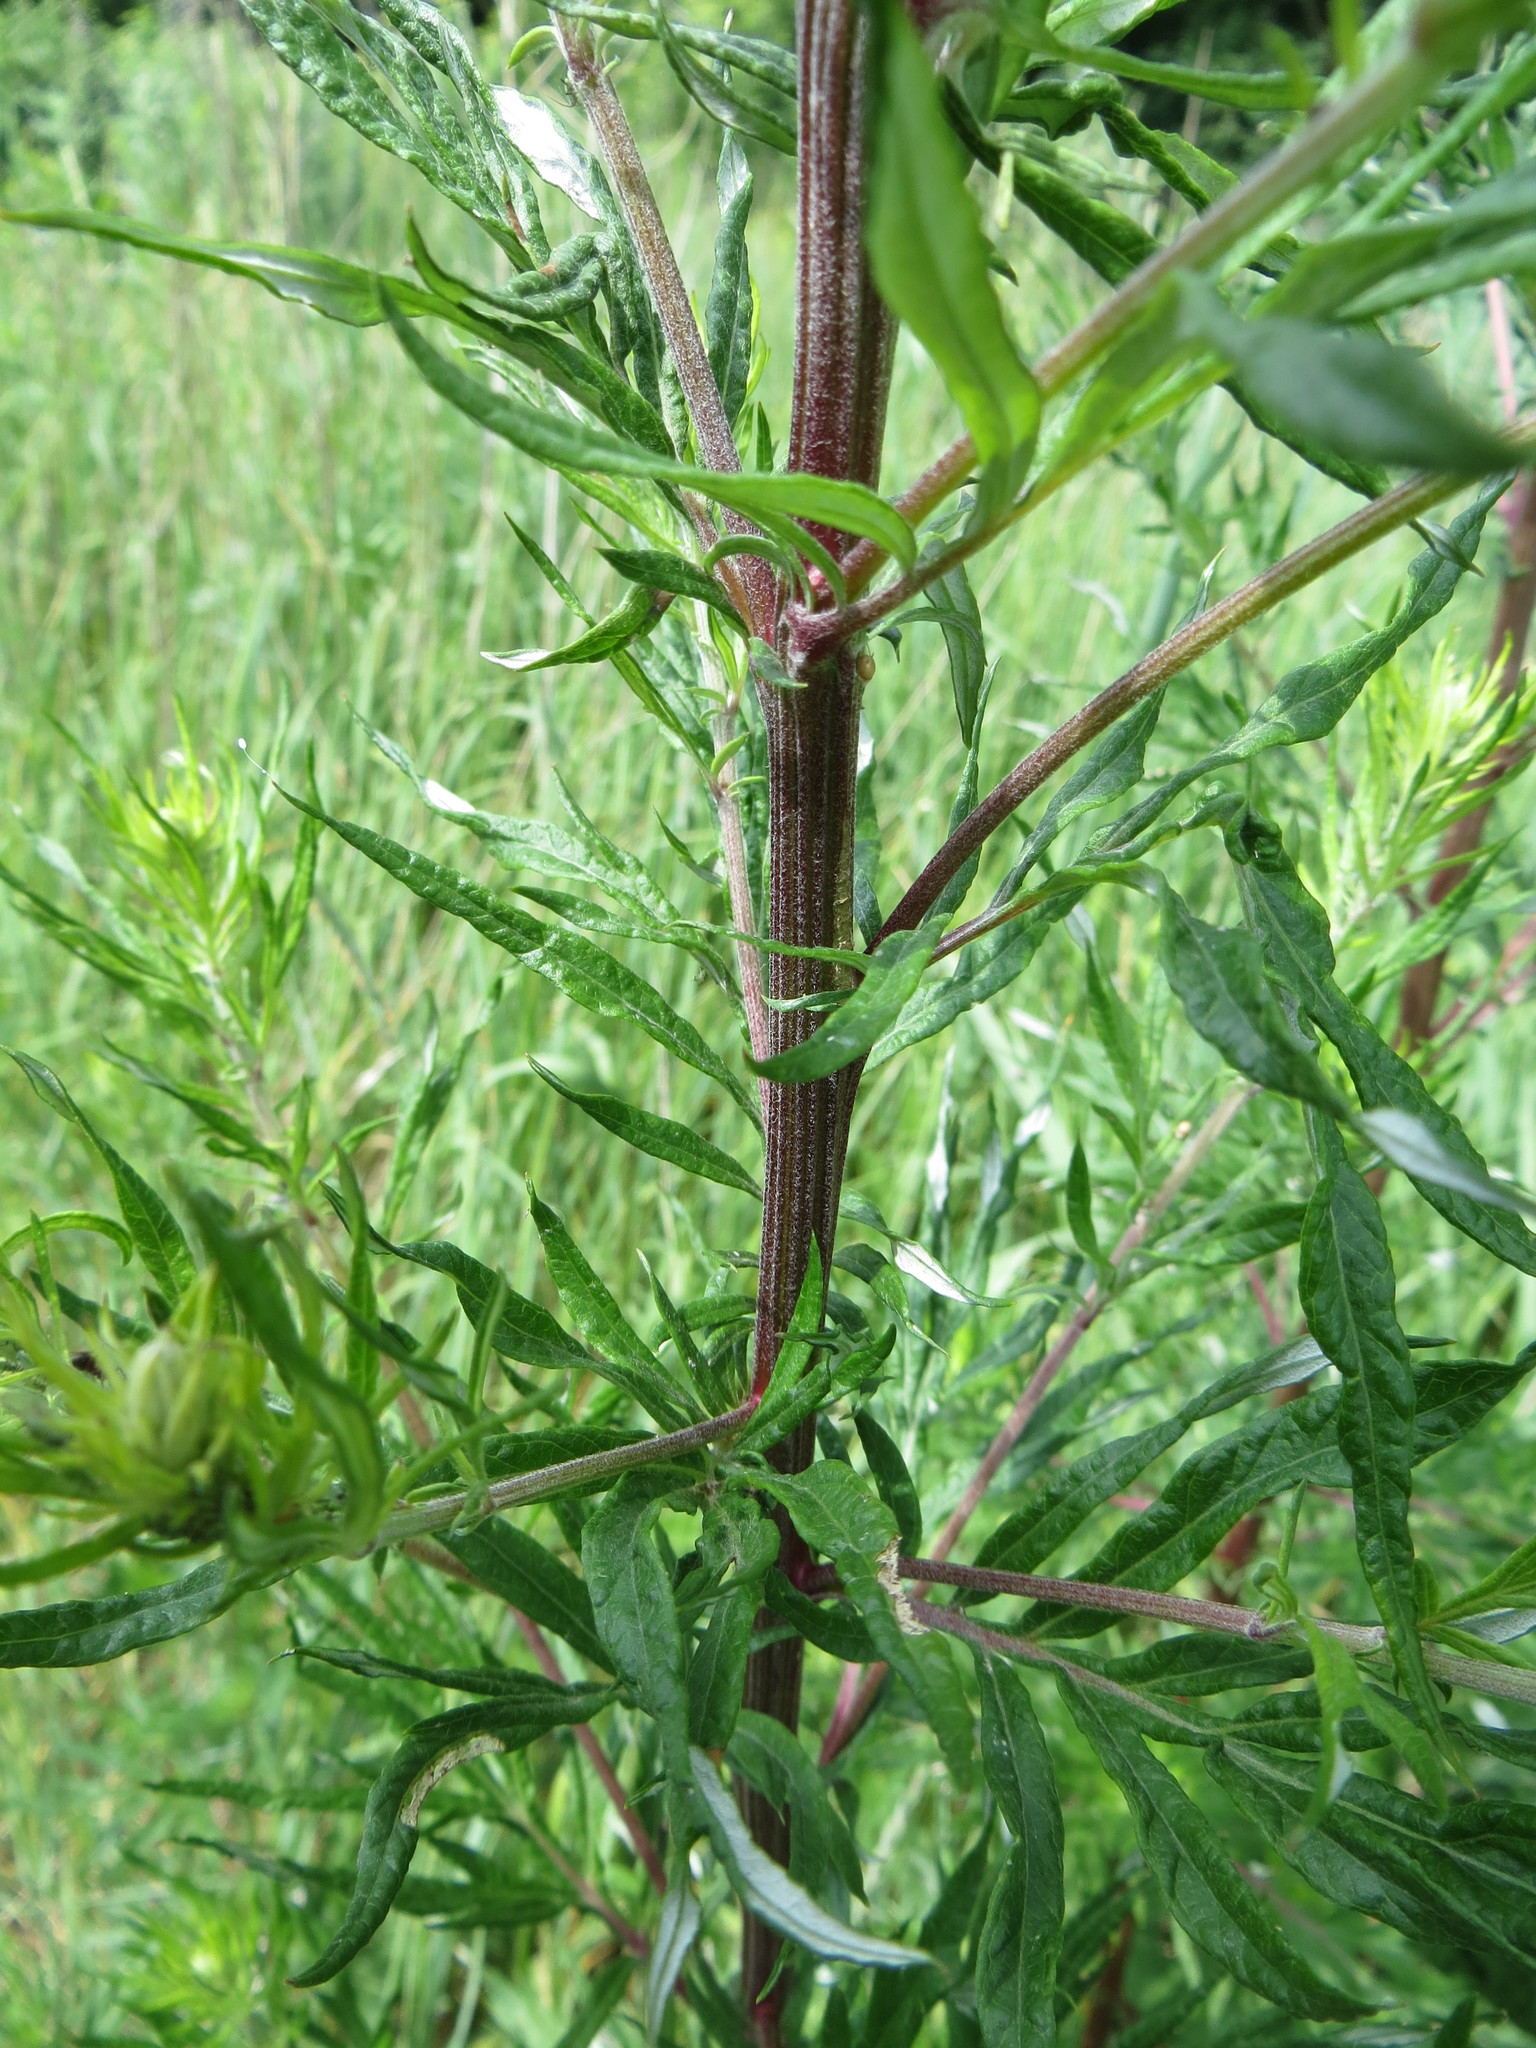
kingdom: Plantae
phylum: Tracheophyta
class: Magnoliopsida
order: Asterales
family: Asteraceae
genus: Artemisia
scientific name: Artemisia vulgaris
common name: Mugwort
